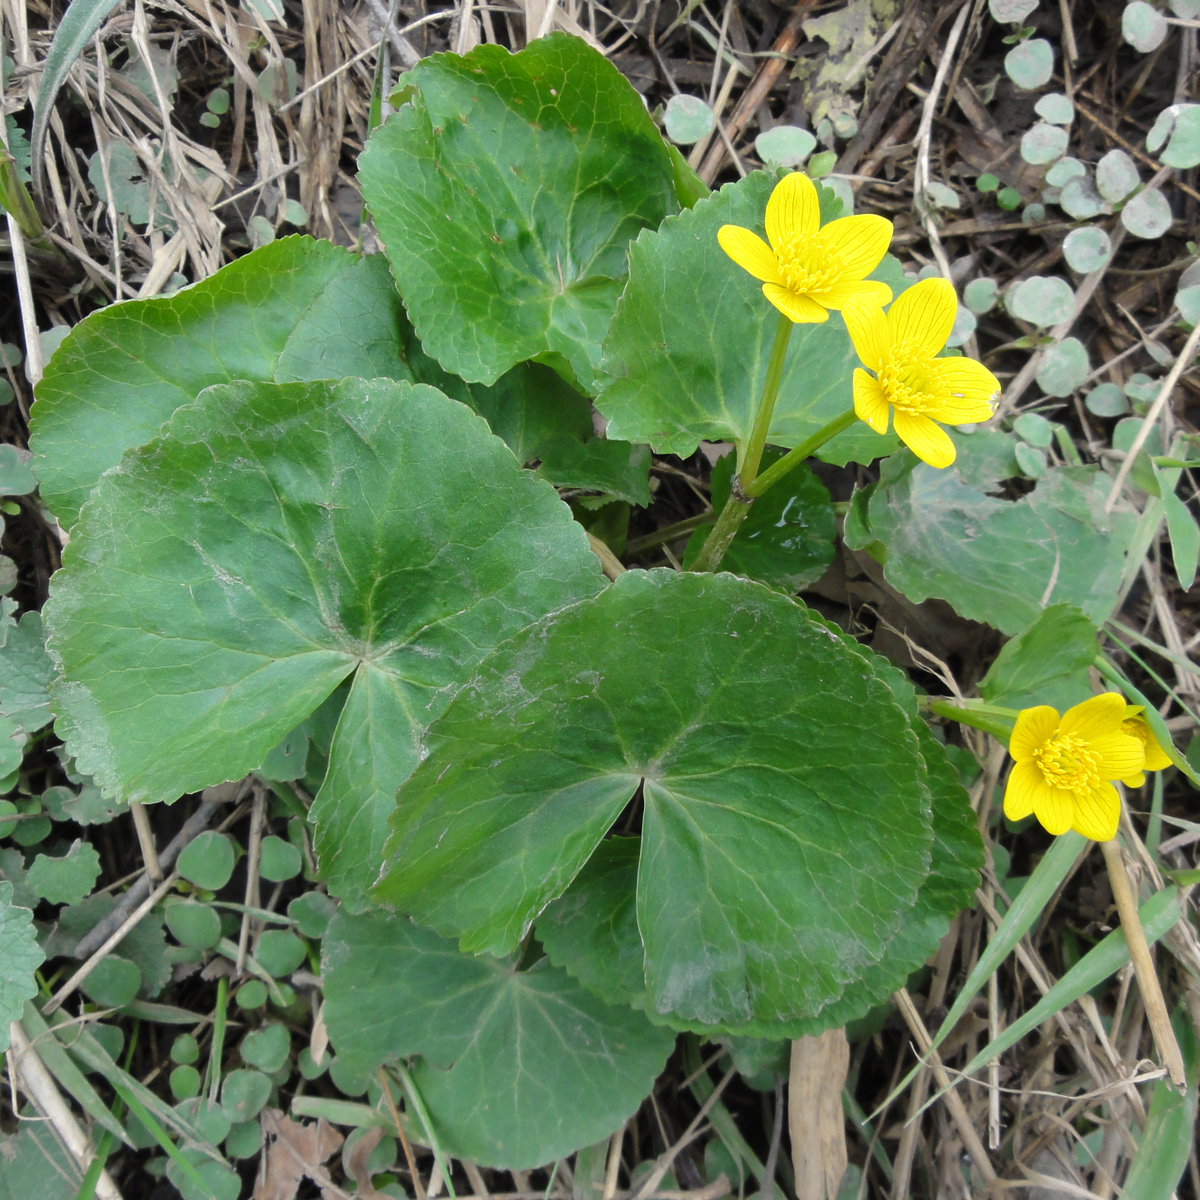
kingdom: Plantae
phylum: Tracheophyta
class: Magnoliopsida
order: Ranunculales
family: Ranunculaceae
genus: Caltha
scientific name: Caltha palustris
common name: Marsh marigold
